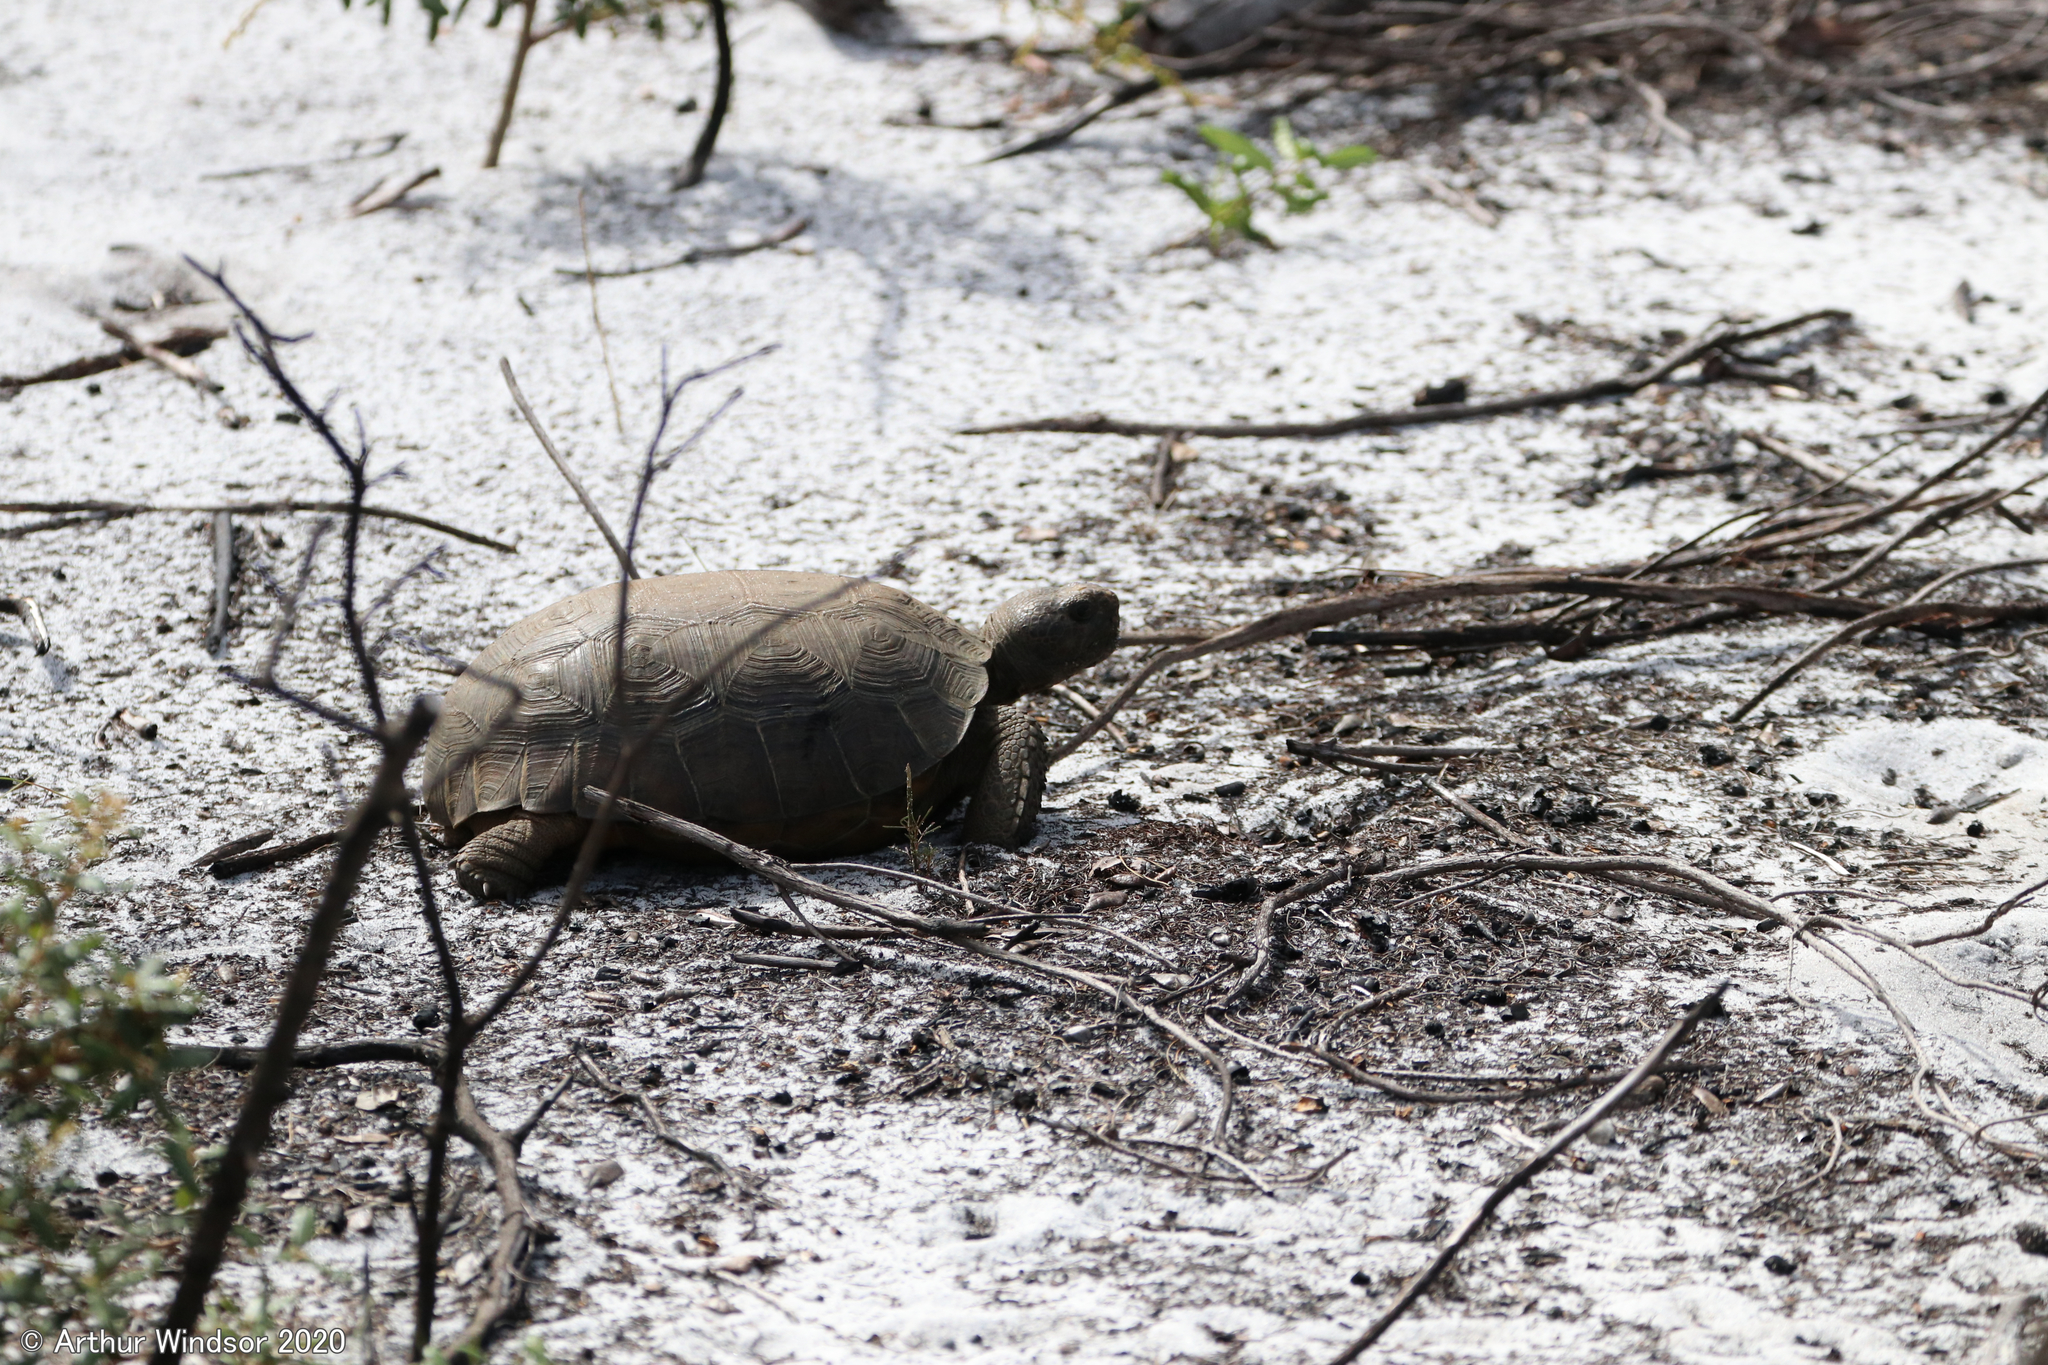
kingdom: Animalia
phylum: Chordata
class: Testudines
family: Testudinidae
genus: Gopherus
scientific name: Gopherus polyphemus
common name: Florida gopher tortoise
